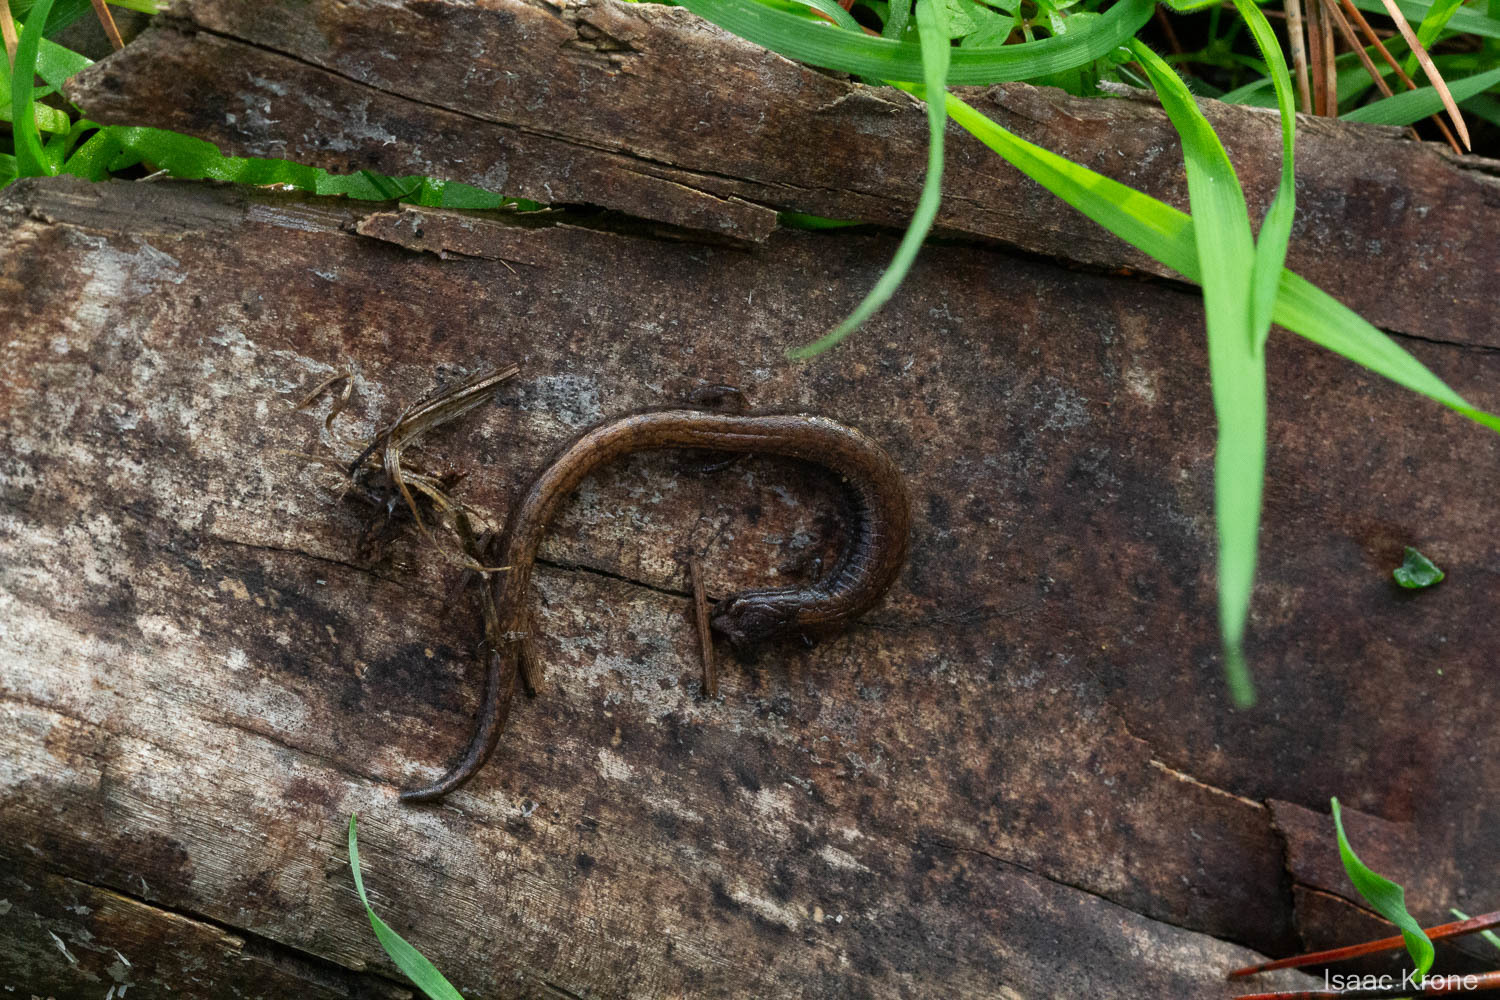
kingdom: Animalia
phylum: Chordata
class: Amphibia
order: Caudata
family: Plethodontidae
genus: Batrachoseps
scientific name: Batrachoseps attenuatus
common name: California slender salamander
